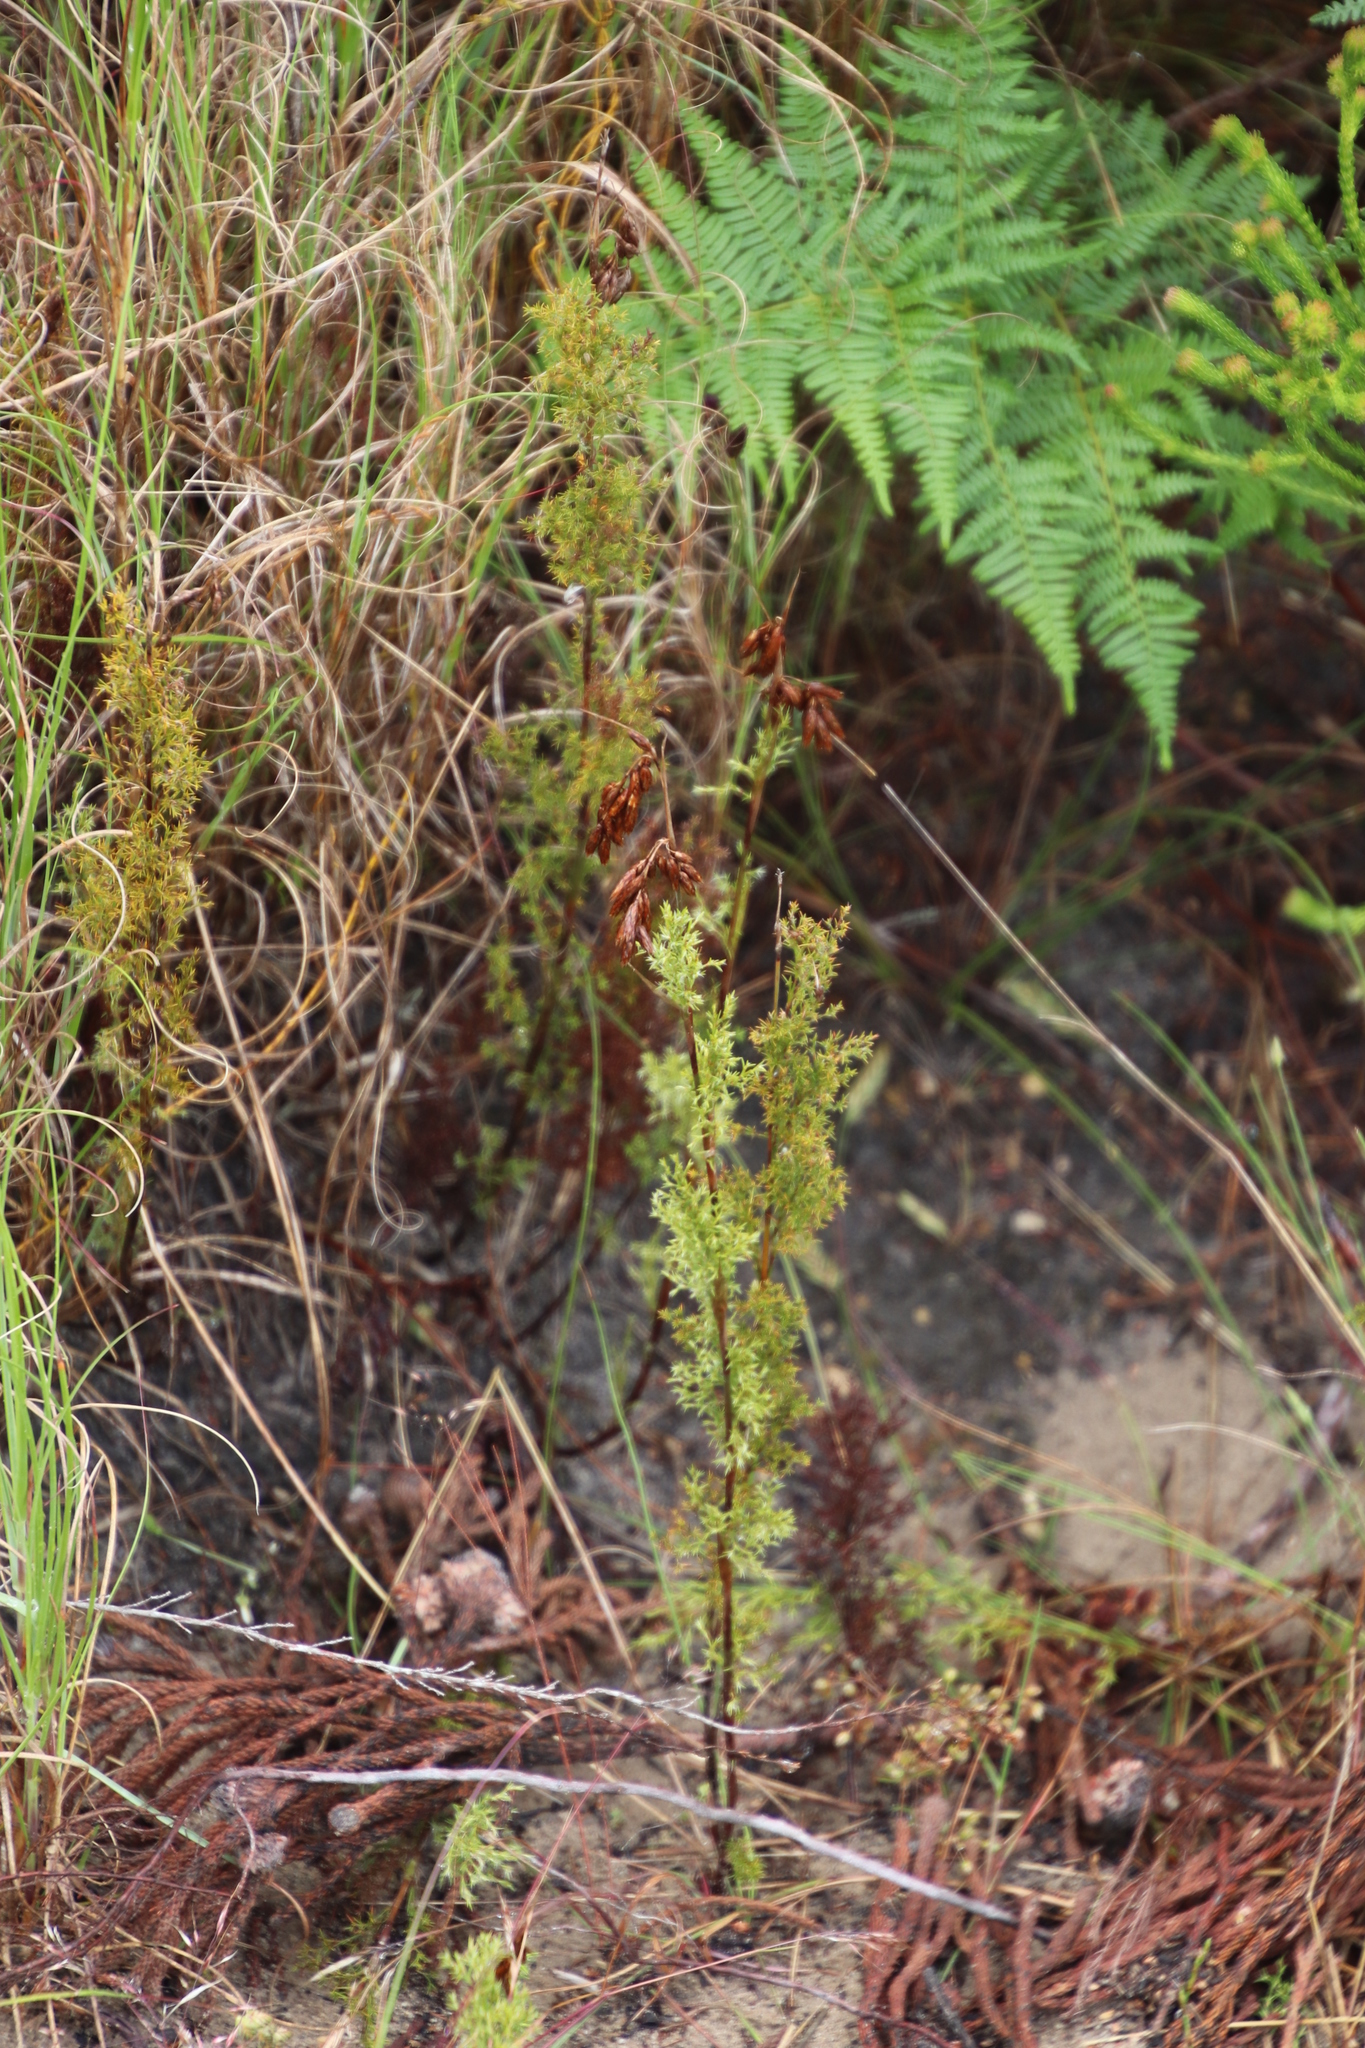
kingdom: Plantae
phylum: Tracheophyta
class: Liliopsida
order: Poales
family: Restionaceae
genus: Thamnochortus
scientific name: Thamnochortus fruticosus
